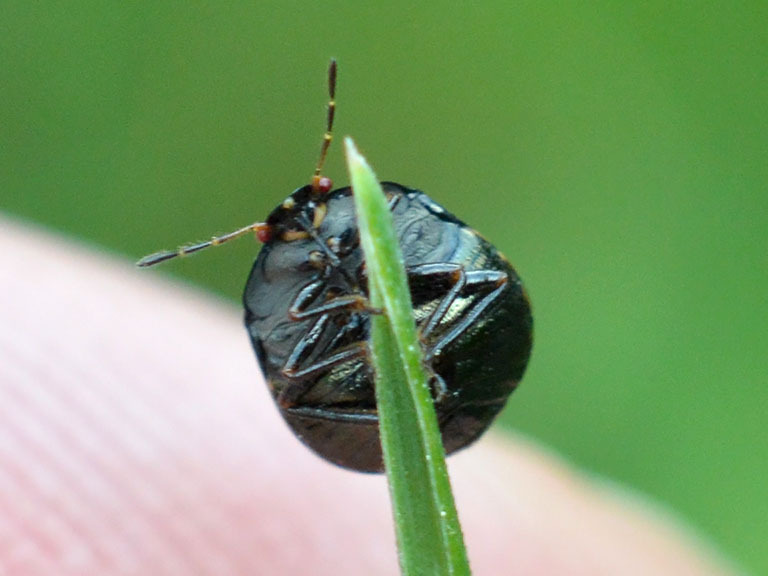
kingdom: Animalia
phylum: Arthropoda
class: Insecta
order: Hemiptera
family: Plataspidae
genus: Coptosoma
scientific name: Coptosoma scutellatum
